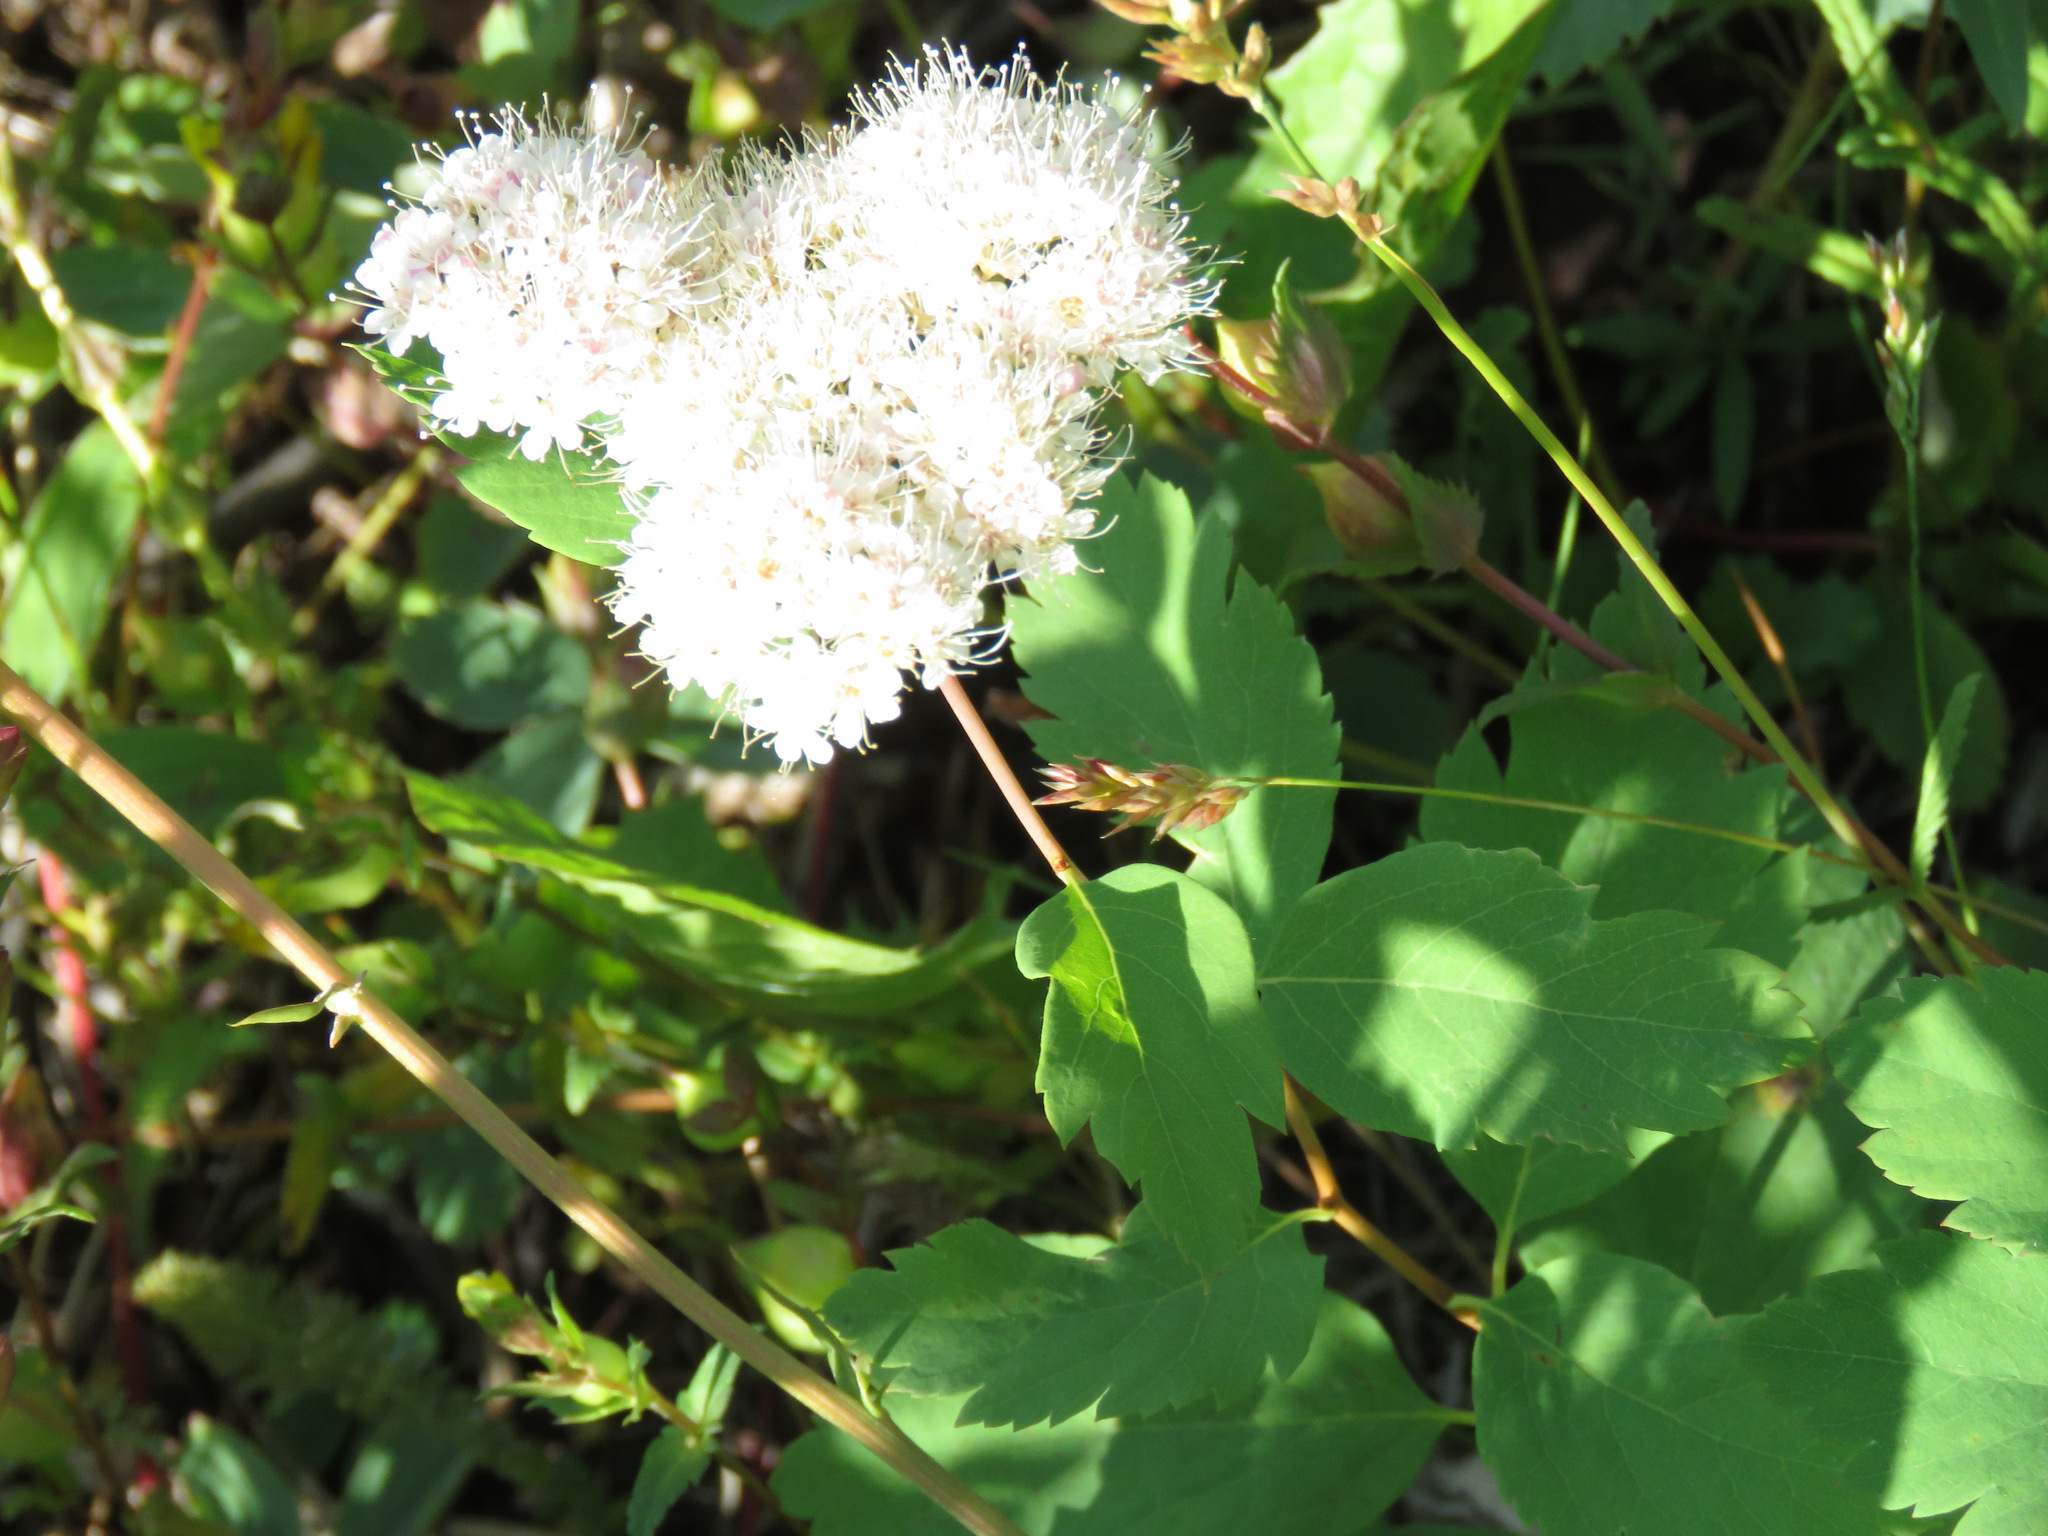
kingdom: Plantae
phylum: Tracheophyta
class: Magnoliopsida
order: Rosales
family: Rosaceae
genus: Spiraea
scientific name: Spiraea lucida
